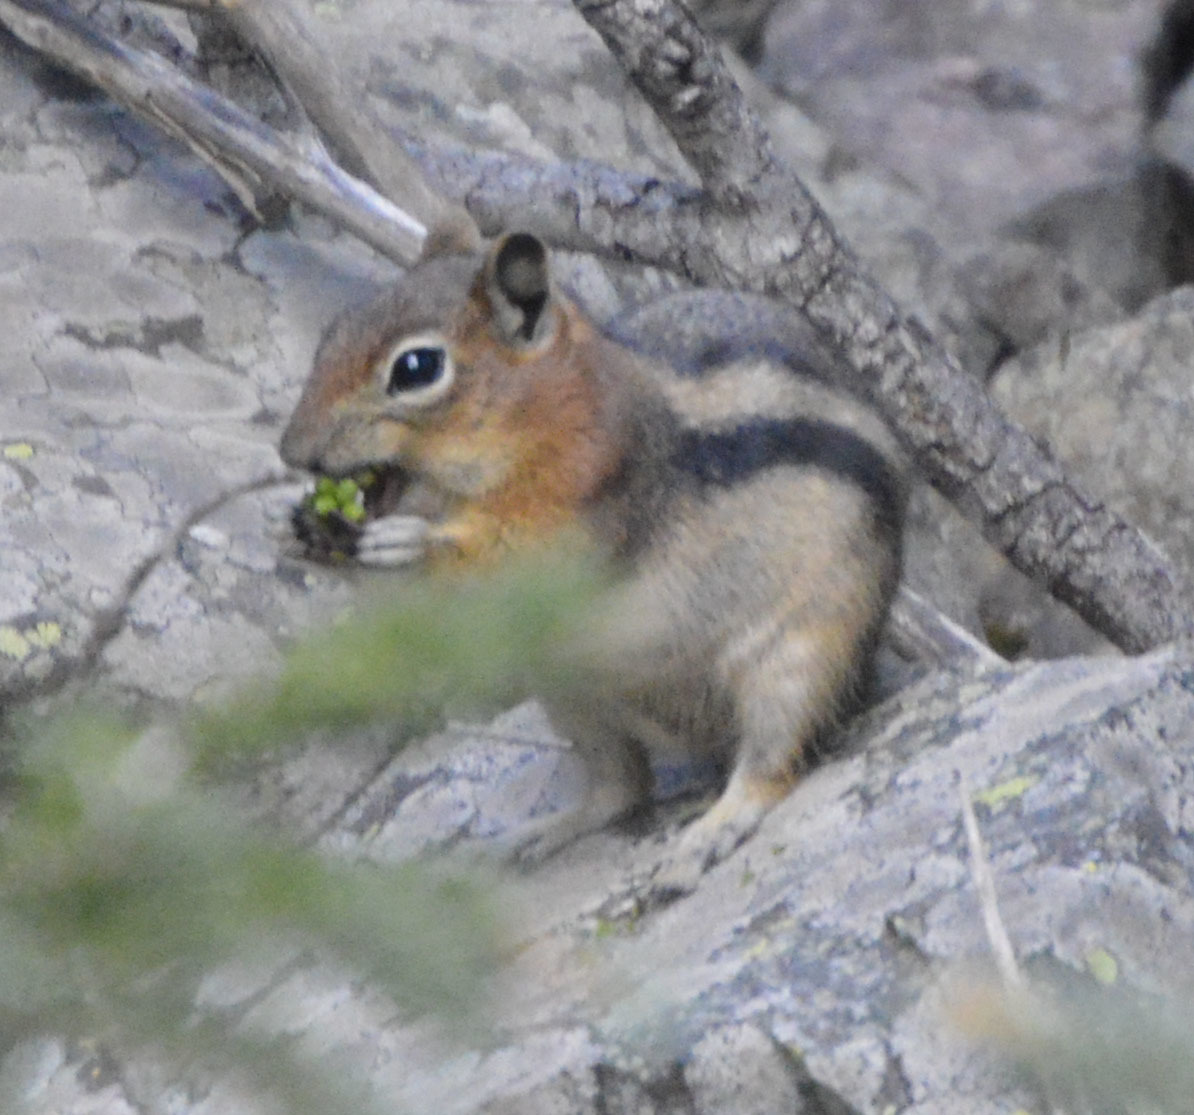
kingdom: Animalia
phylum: Chordata
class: Mammalia
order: Rodentia
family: Sciuridae
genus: Callospermophilus
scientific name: Callospermophilus lateralis
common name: Golden-mantled ground squirrel
